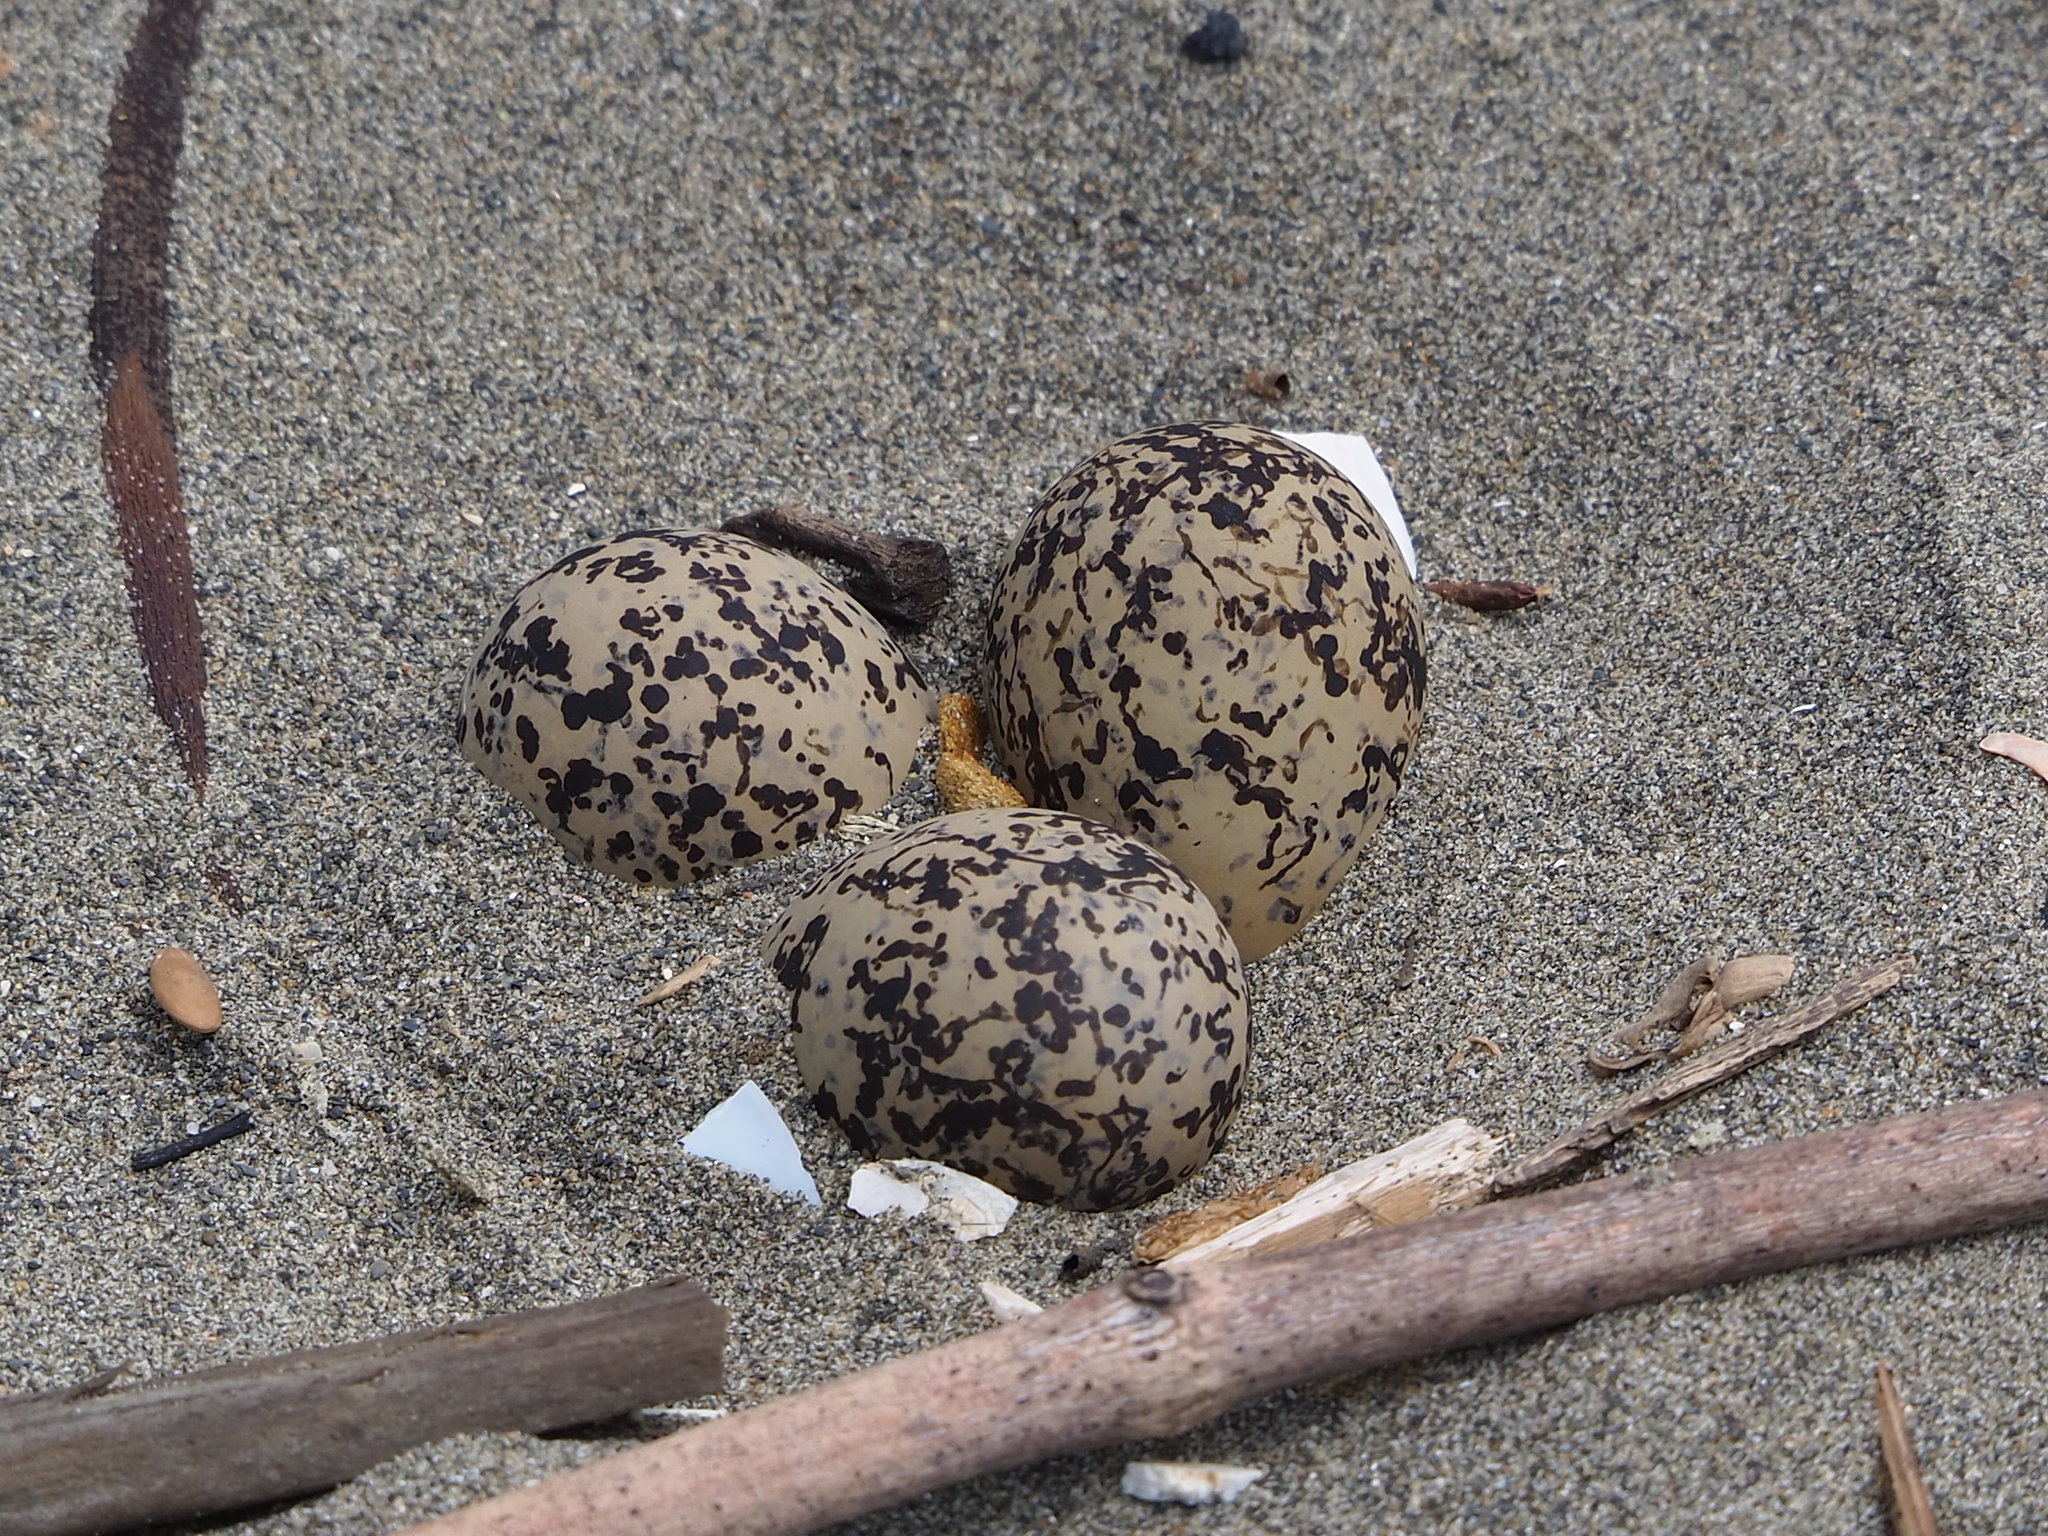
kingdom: Animalia
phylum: Chordata
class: Aves
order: Charadriiformes
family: Charadriidae
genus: Charadrius
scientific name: Charadrius alexandrinus
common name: Kentish plover
